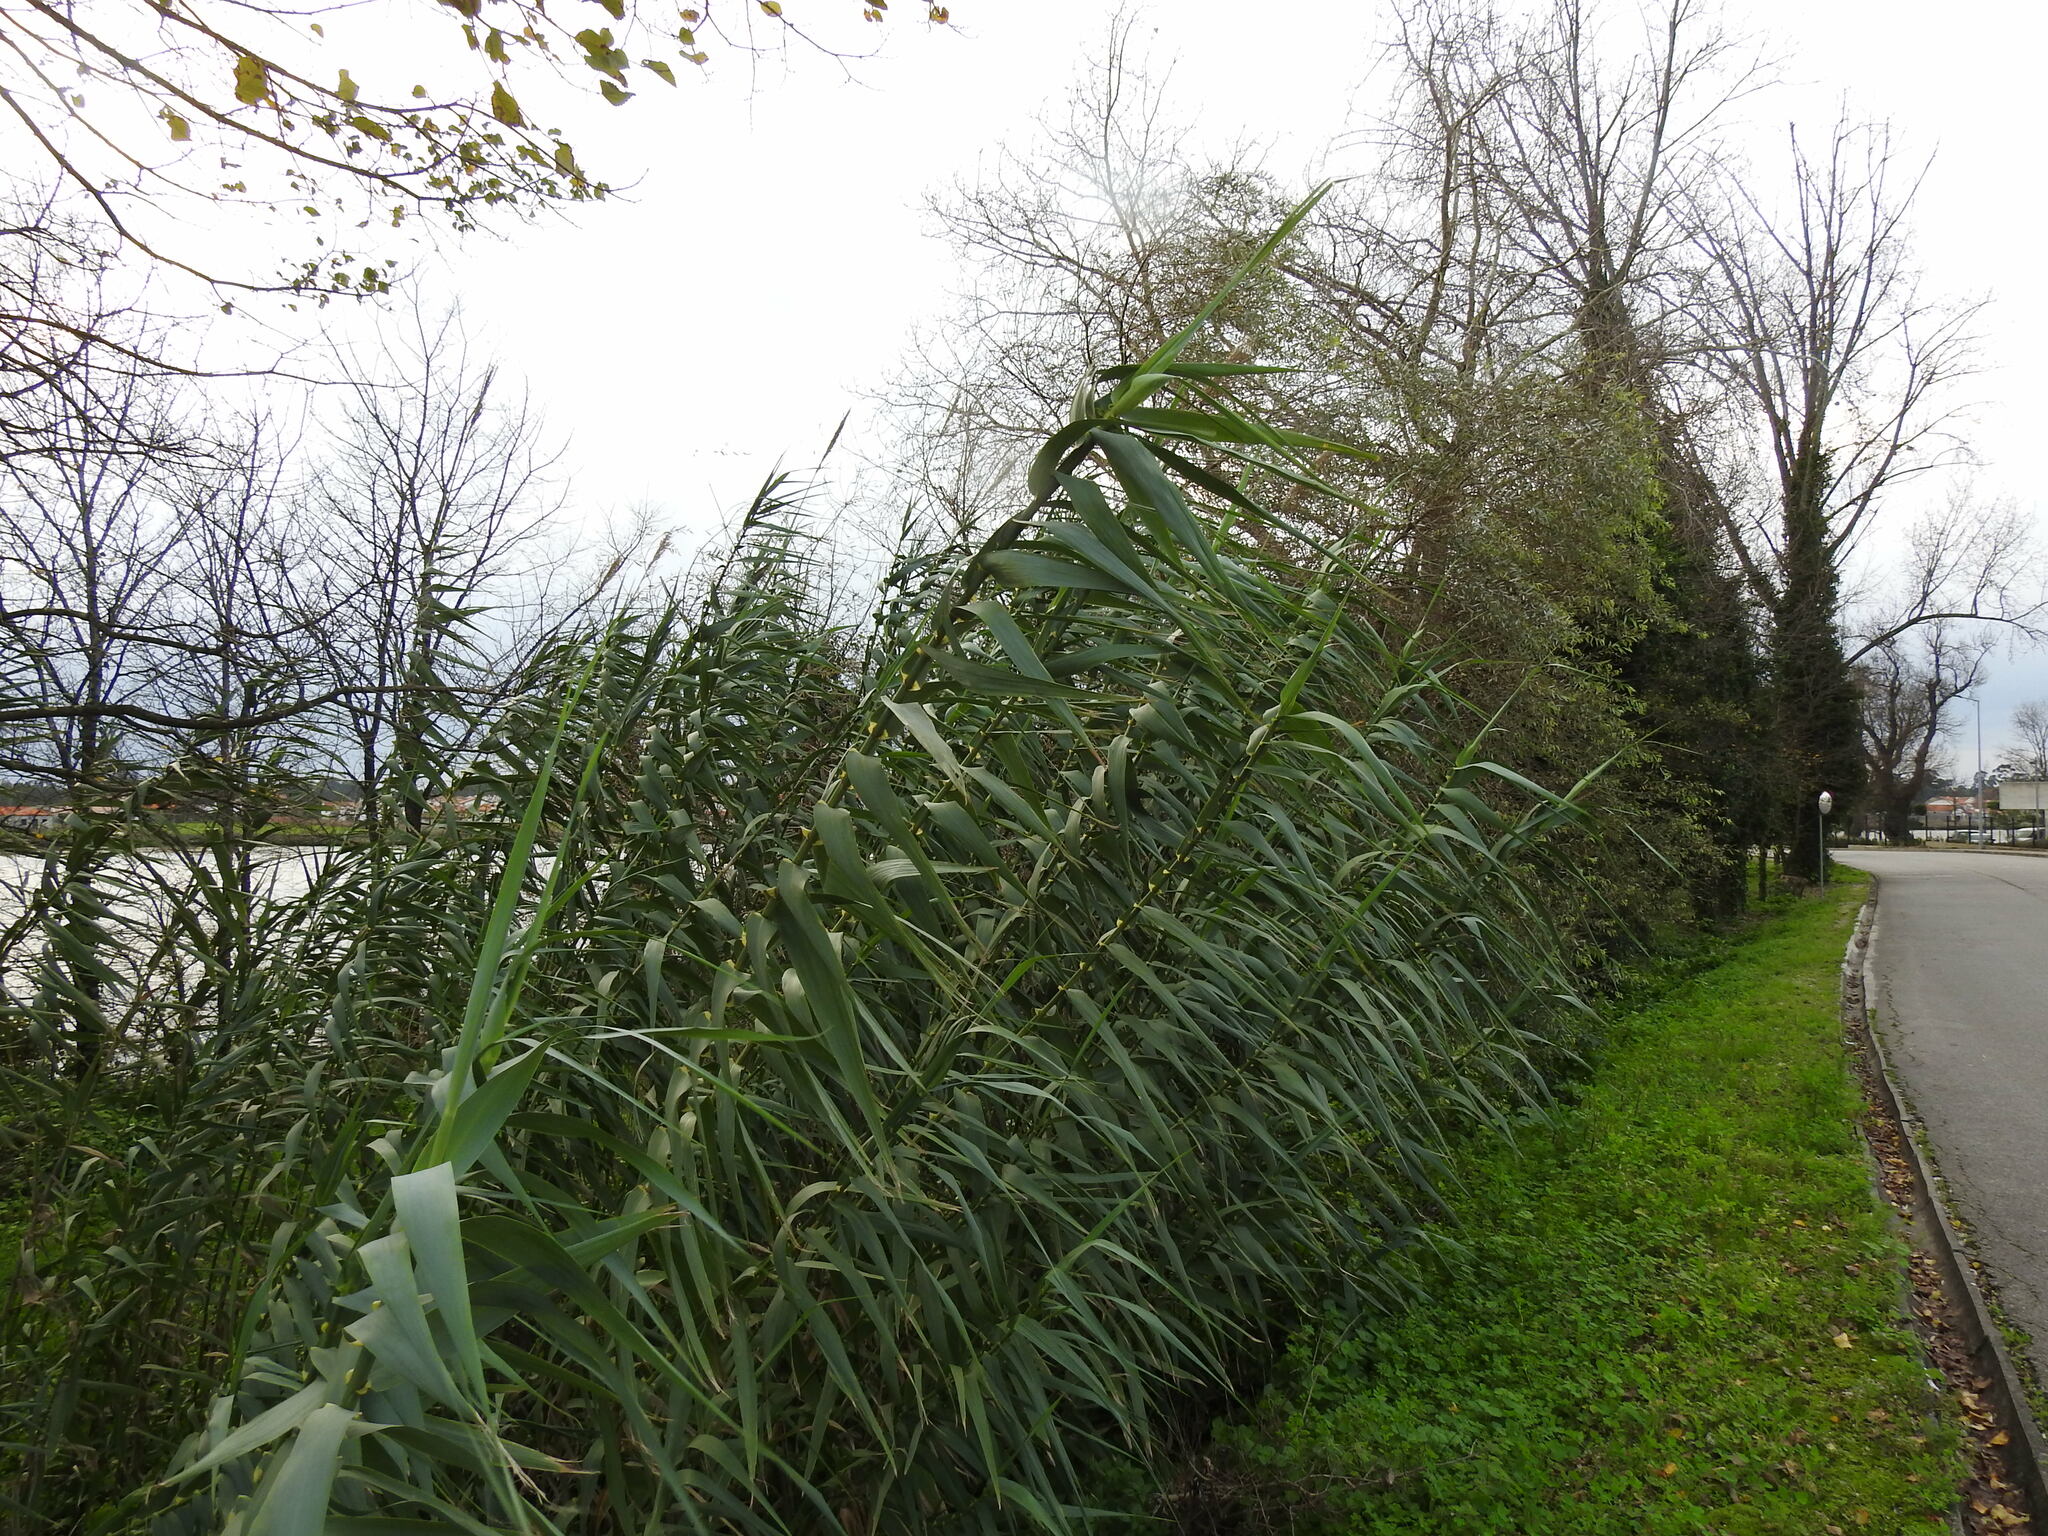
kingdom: Plantae
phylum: Tracheophyta
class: Liliopsida
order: Poales
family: Poaceae
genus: Arundo
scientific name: Arundo donax
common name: Giant reed
